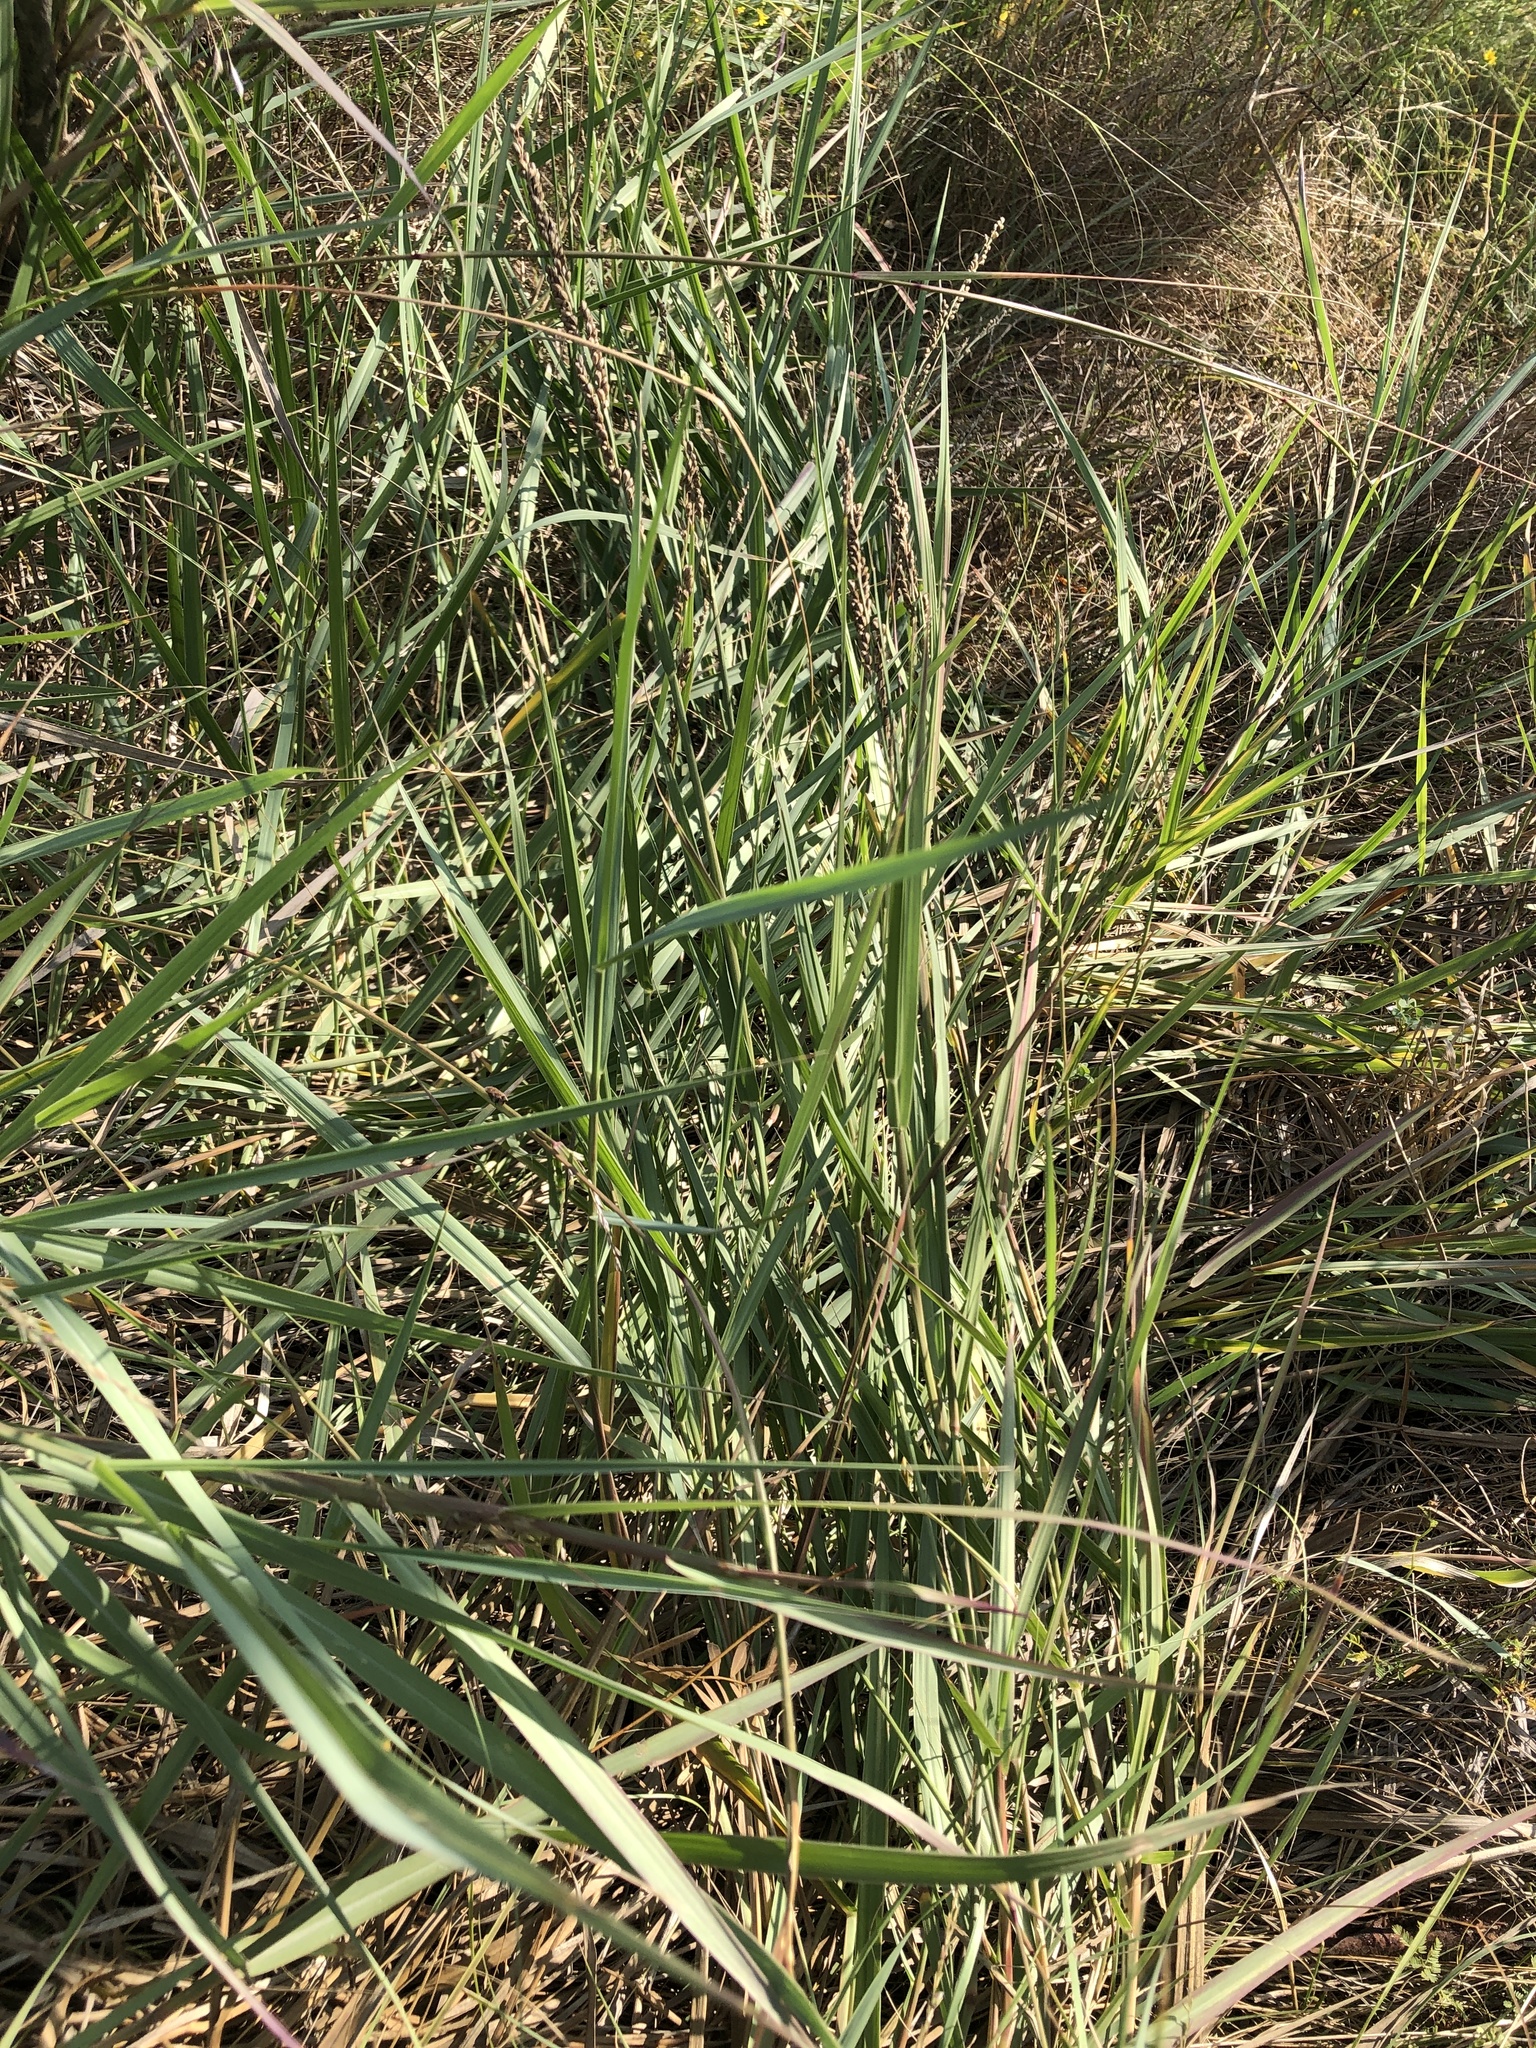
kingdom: Plantae
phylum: Tracheophyta
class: Liliopsida
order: Poales
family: Poaceae
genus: Hopia
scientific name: Hopia obtusa
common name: Vine-mesquite
